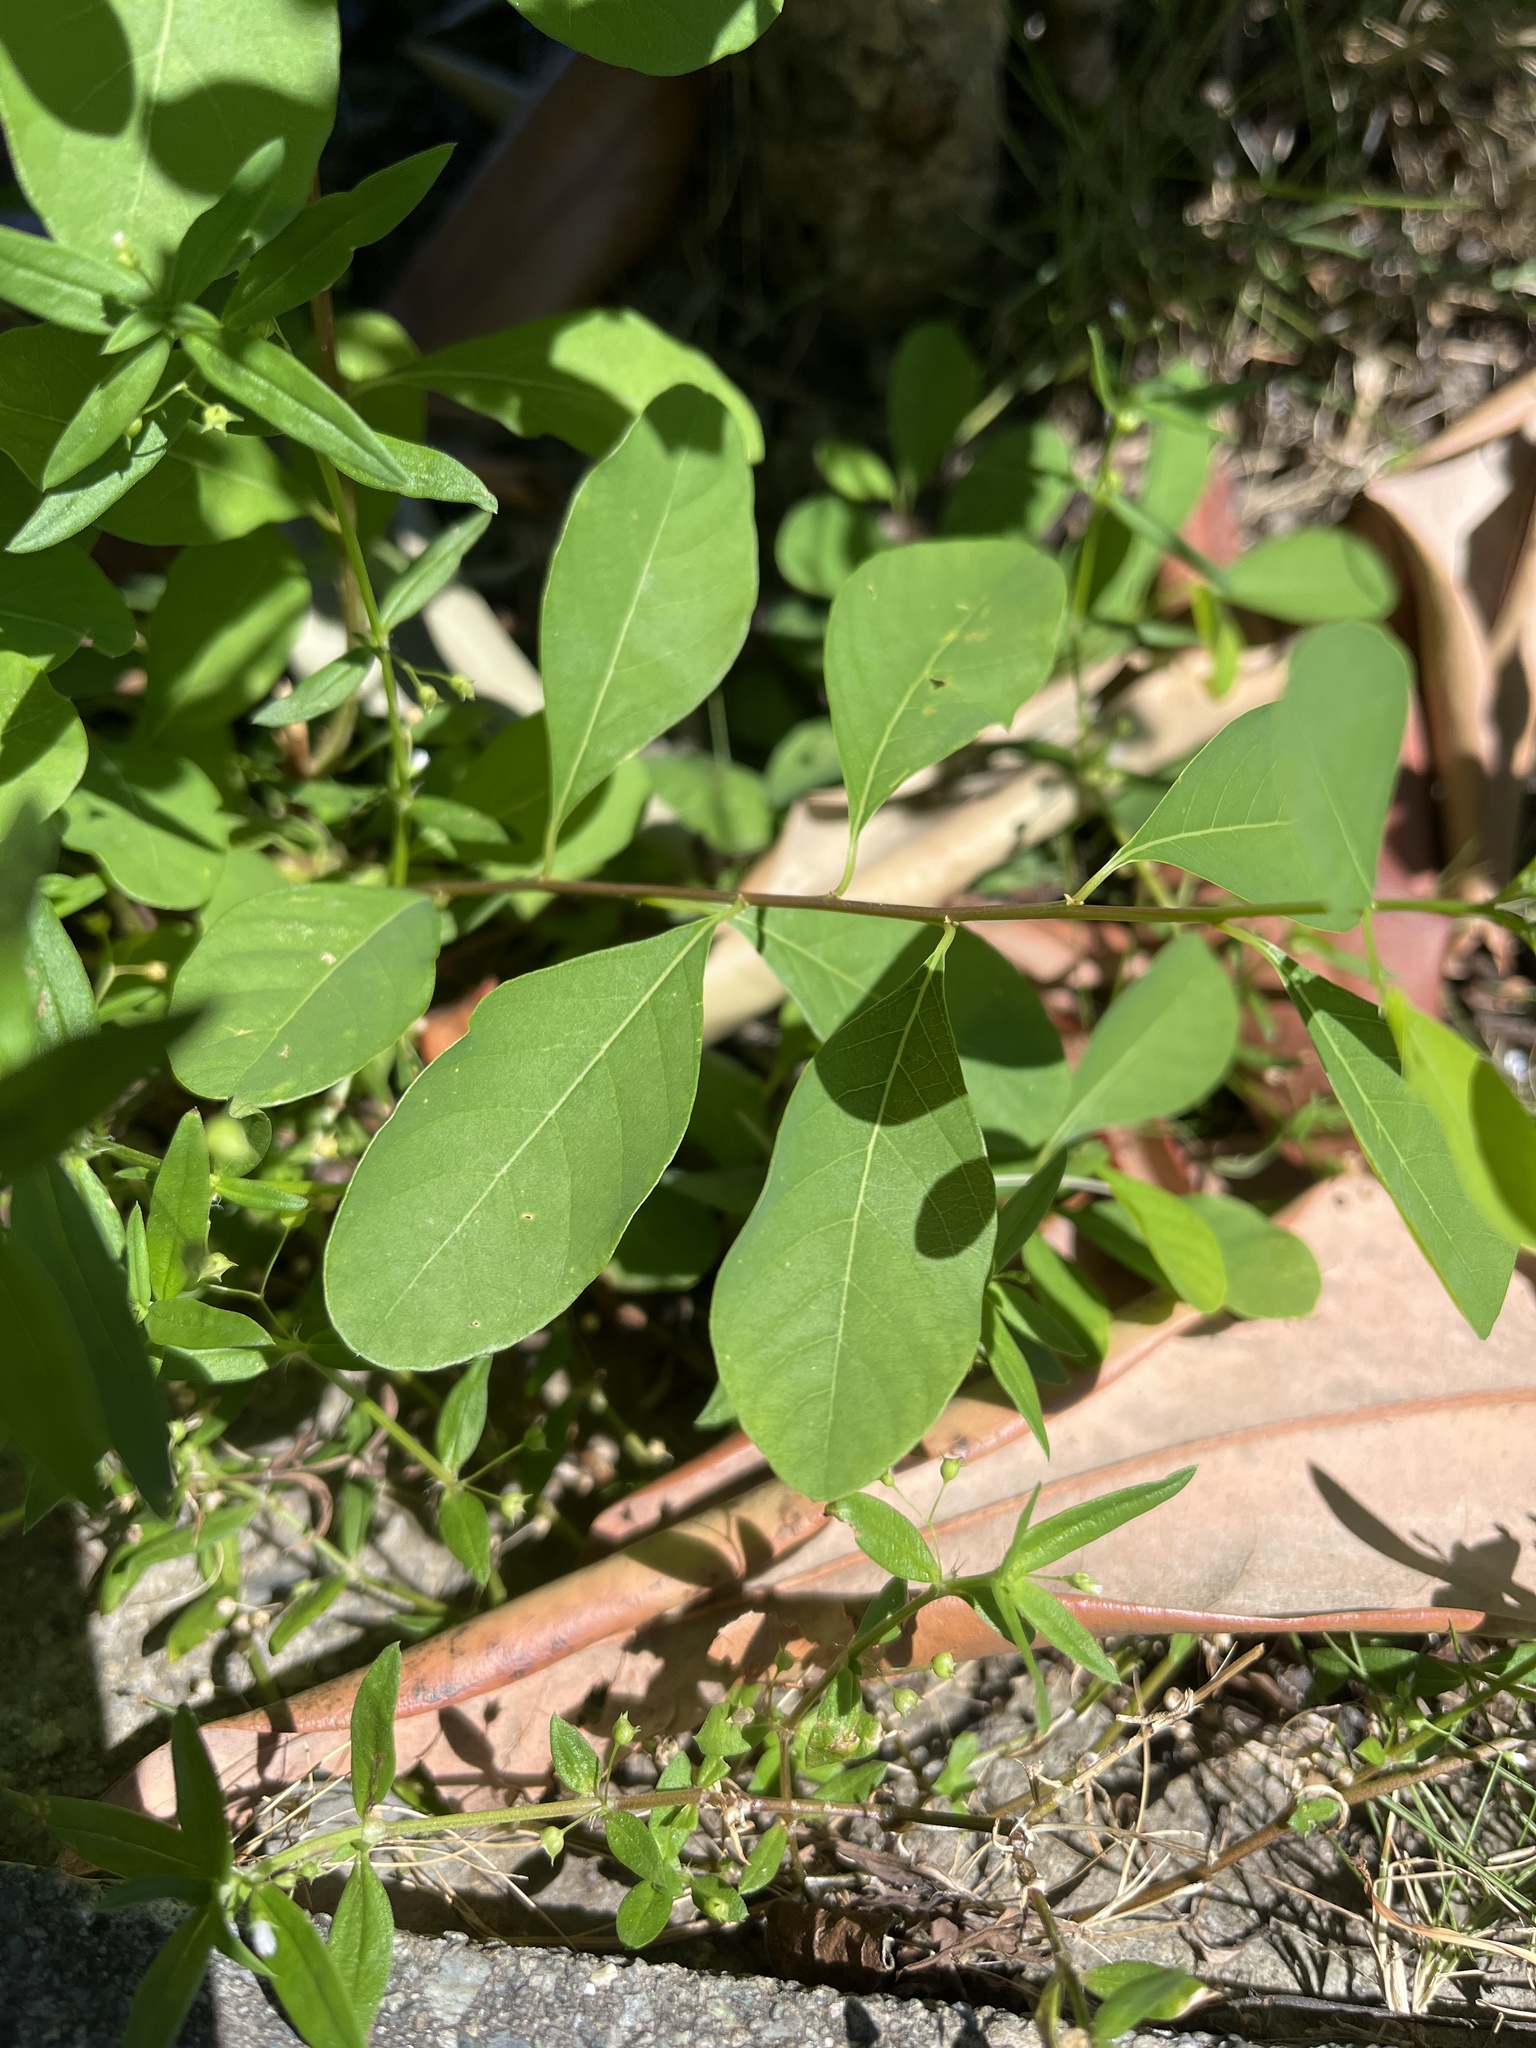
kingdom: Plantae
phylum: Tracheophyta
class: Magnoliopsida
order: Malpighiales
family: Phyllanthaceae
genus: Flueggea
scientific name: Flueggea virosa
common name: Common bushweed
